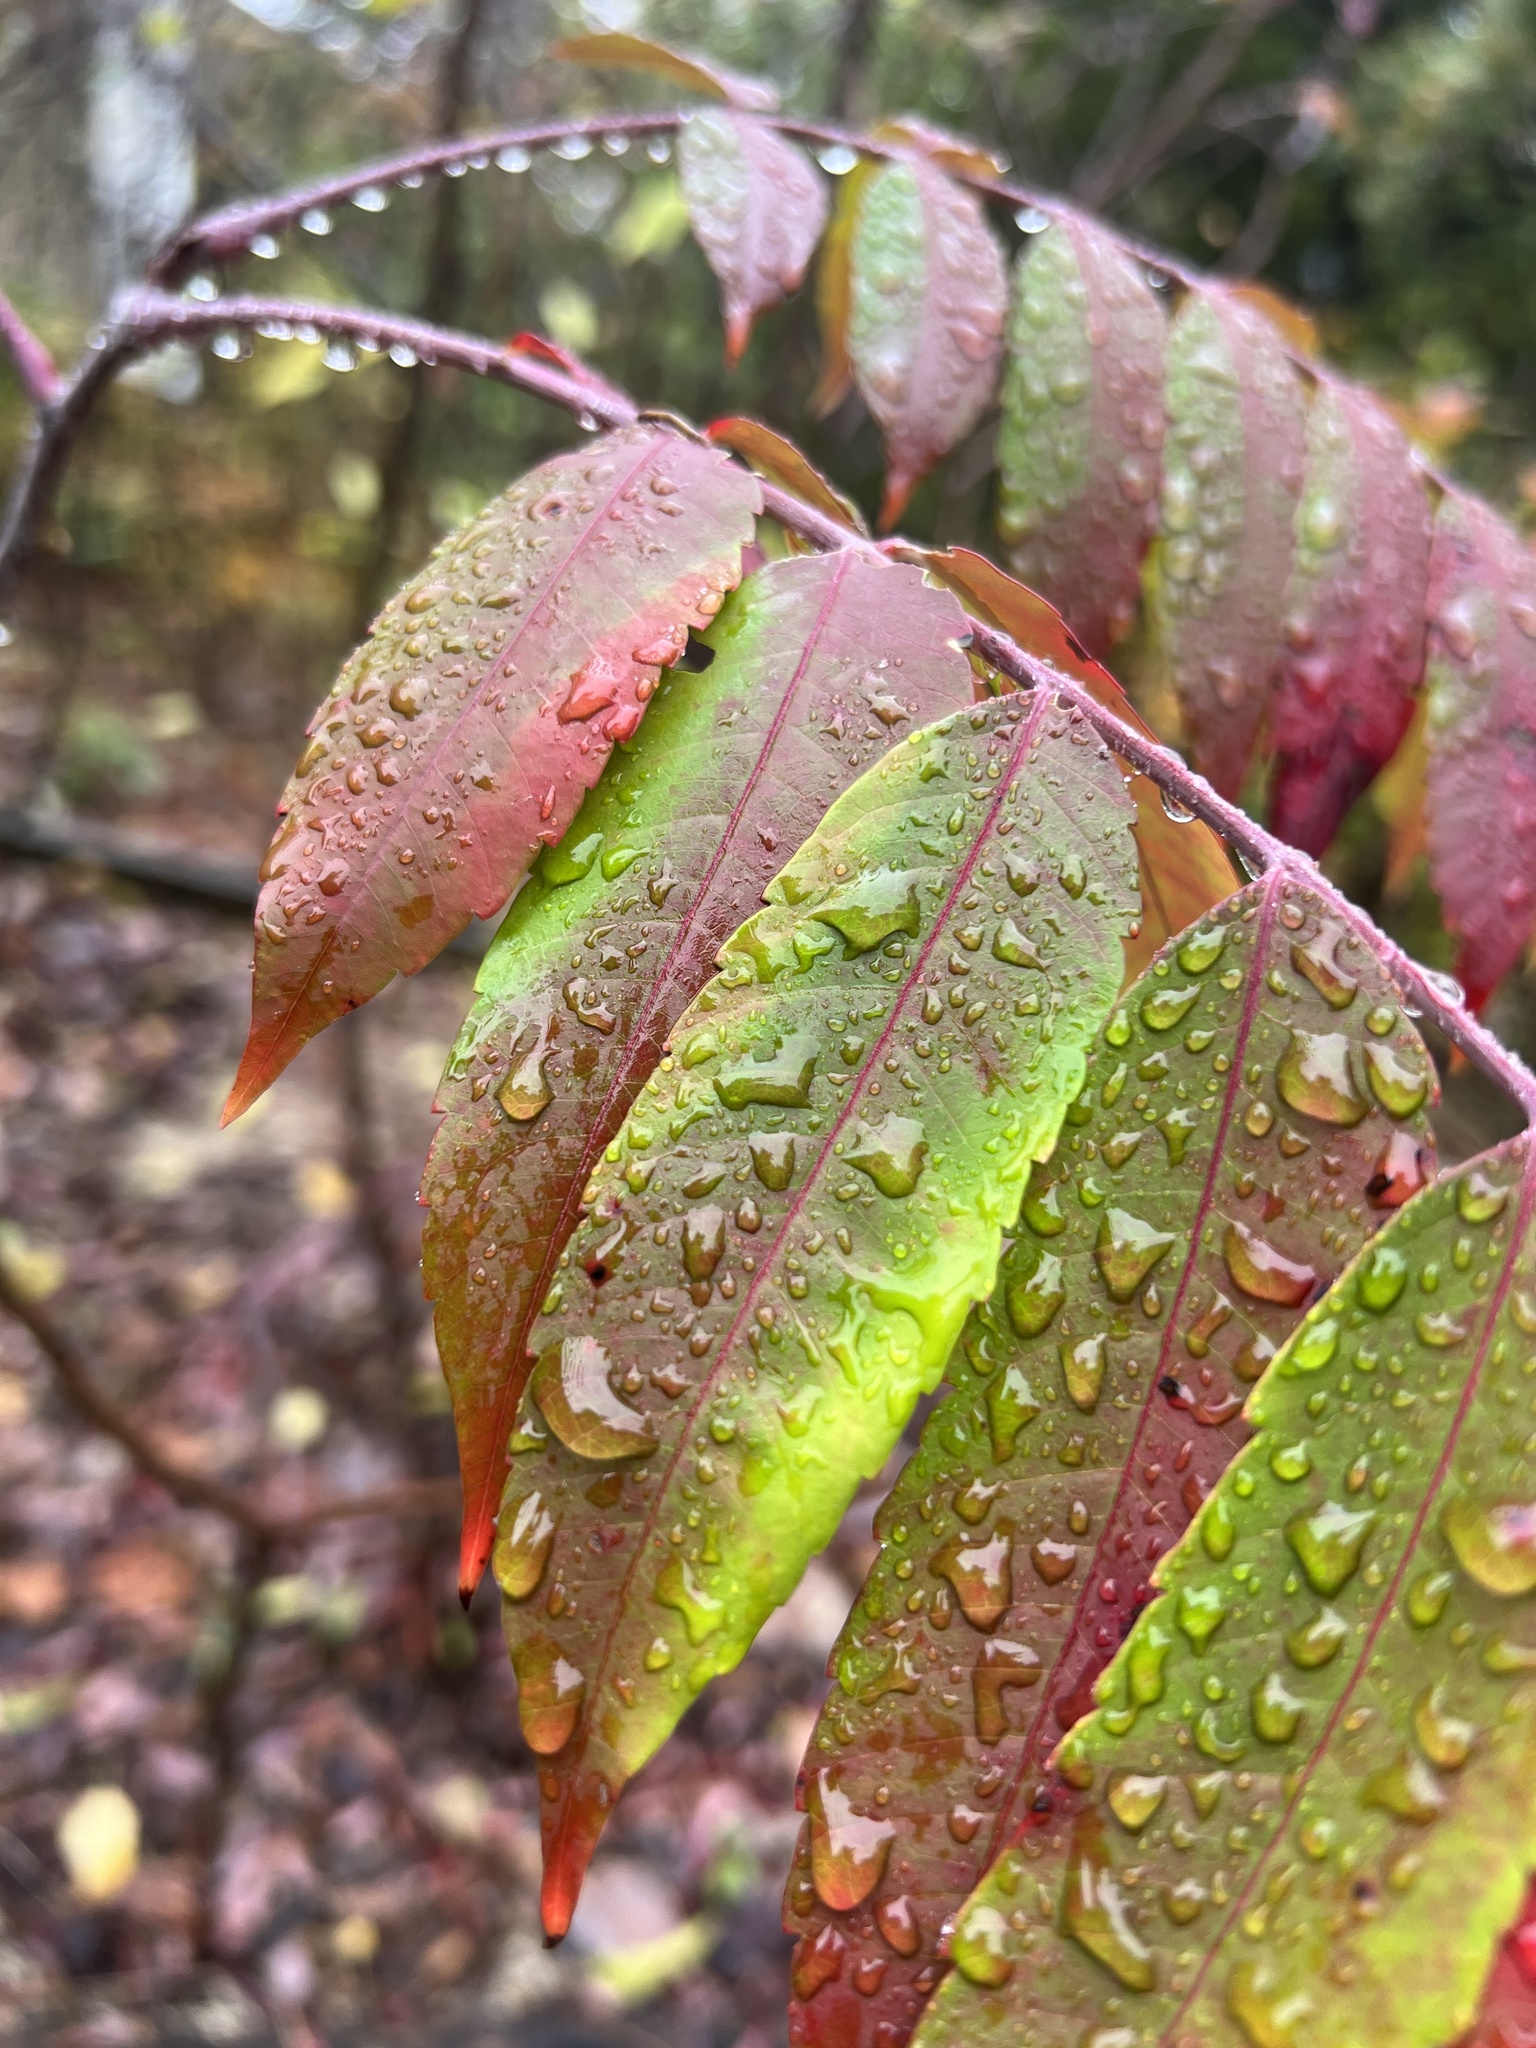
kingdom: Plantae
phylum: Tracheophyta
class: Magnoliopsida
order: Sapindales
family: Anacardiaceae
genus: Rhus
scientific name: Rhus glabra
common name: Scarlet sumac
